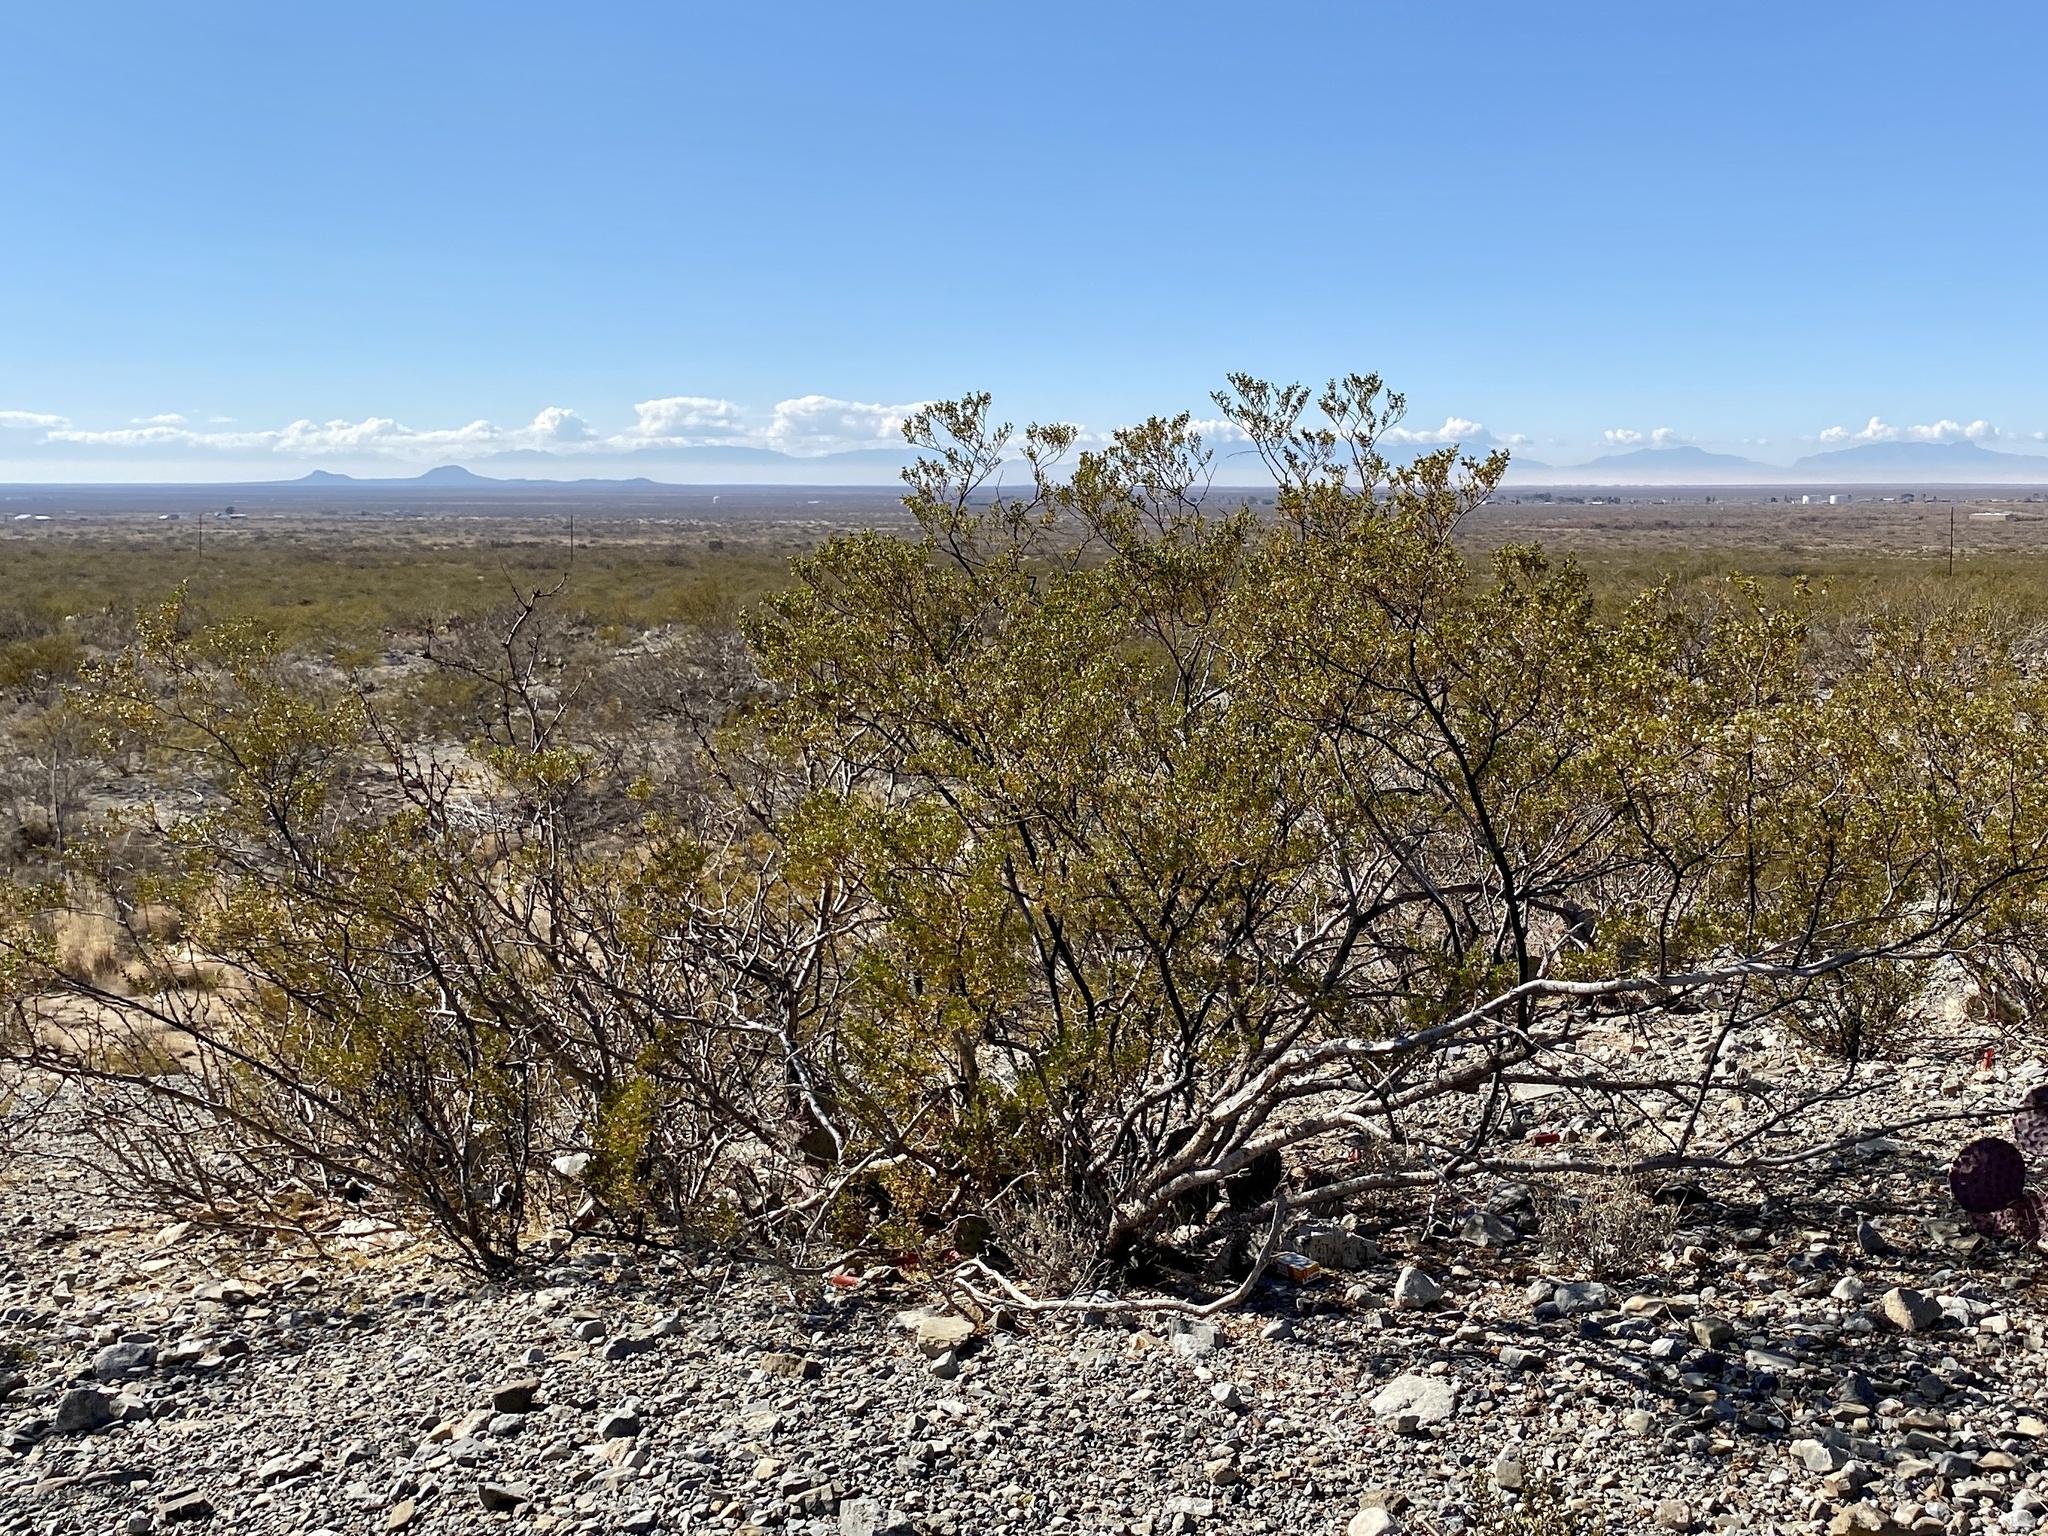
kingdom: Plantae
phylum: Tracheophyta
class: Magnoliopsida
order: Zygophyllales
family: Zygophyllaceae
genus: Larrea
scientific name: Larrea tridentata
